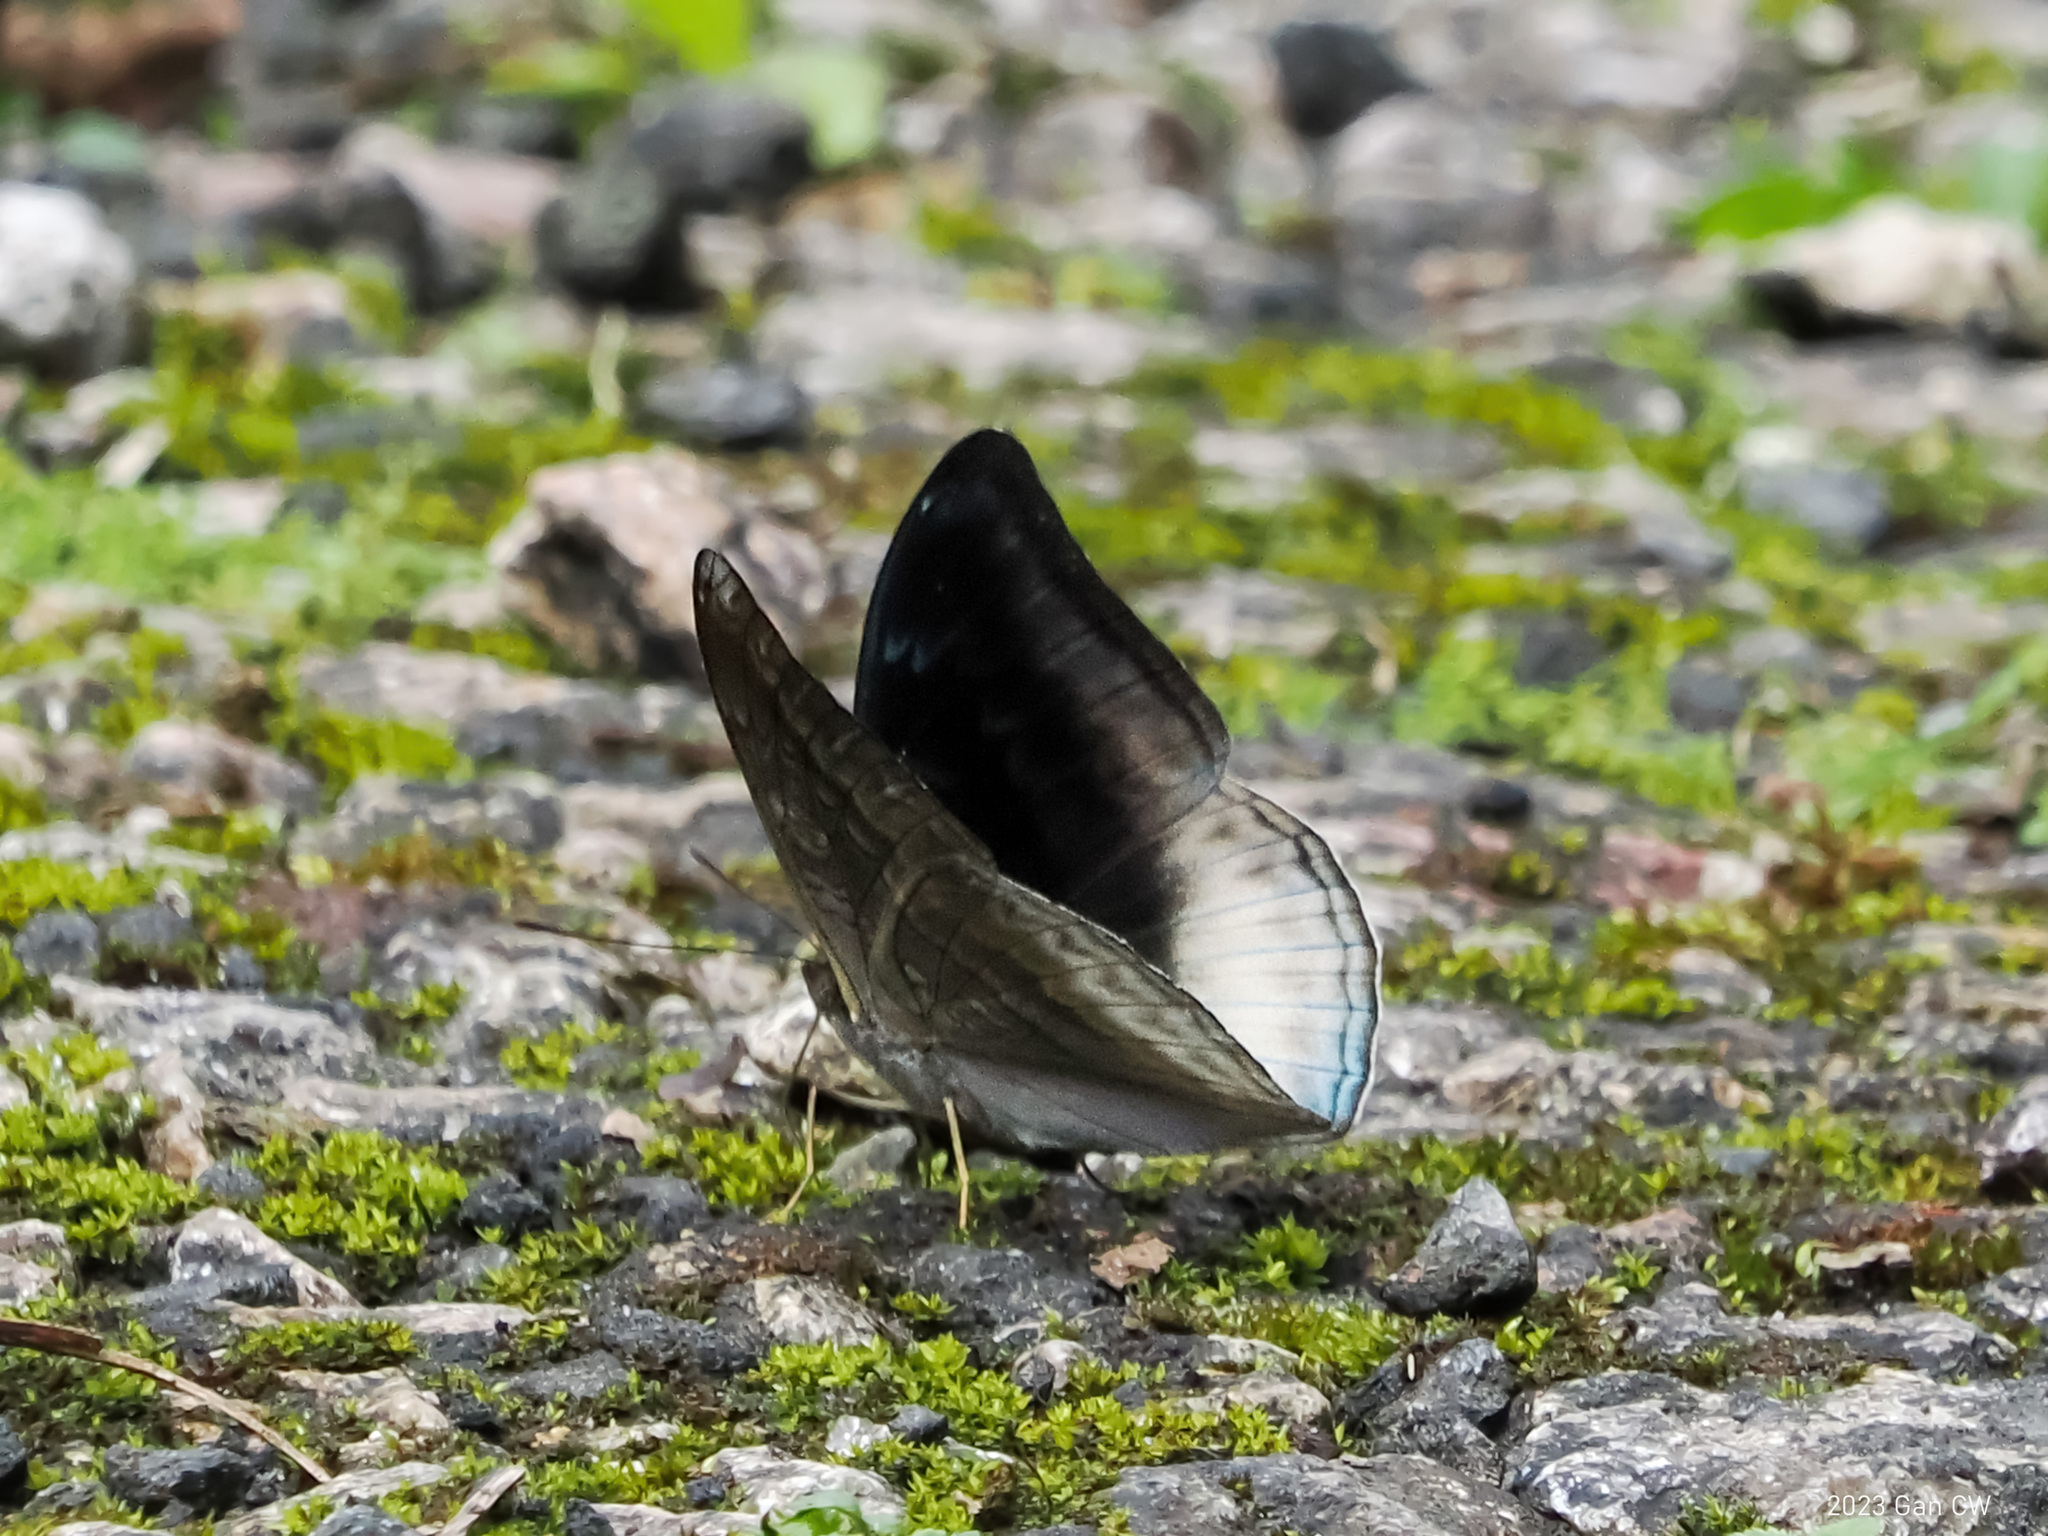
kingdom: Animalia
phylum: Arthropoda
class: Insecta
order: Lepidoptera
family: Nymphalidae
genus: Limenitis
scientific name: Limenitis Auzakia danava
